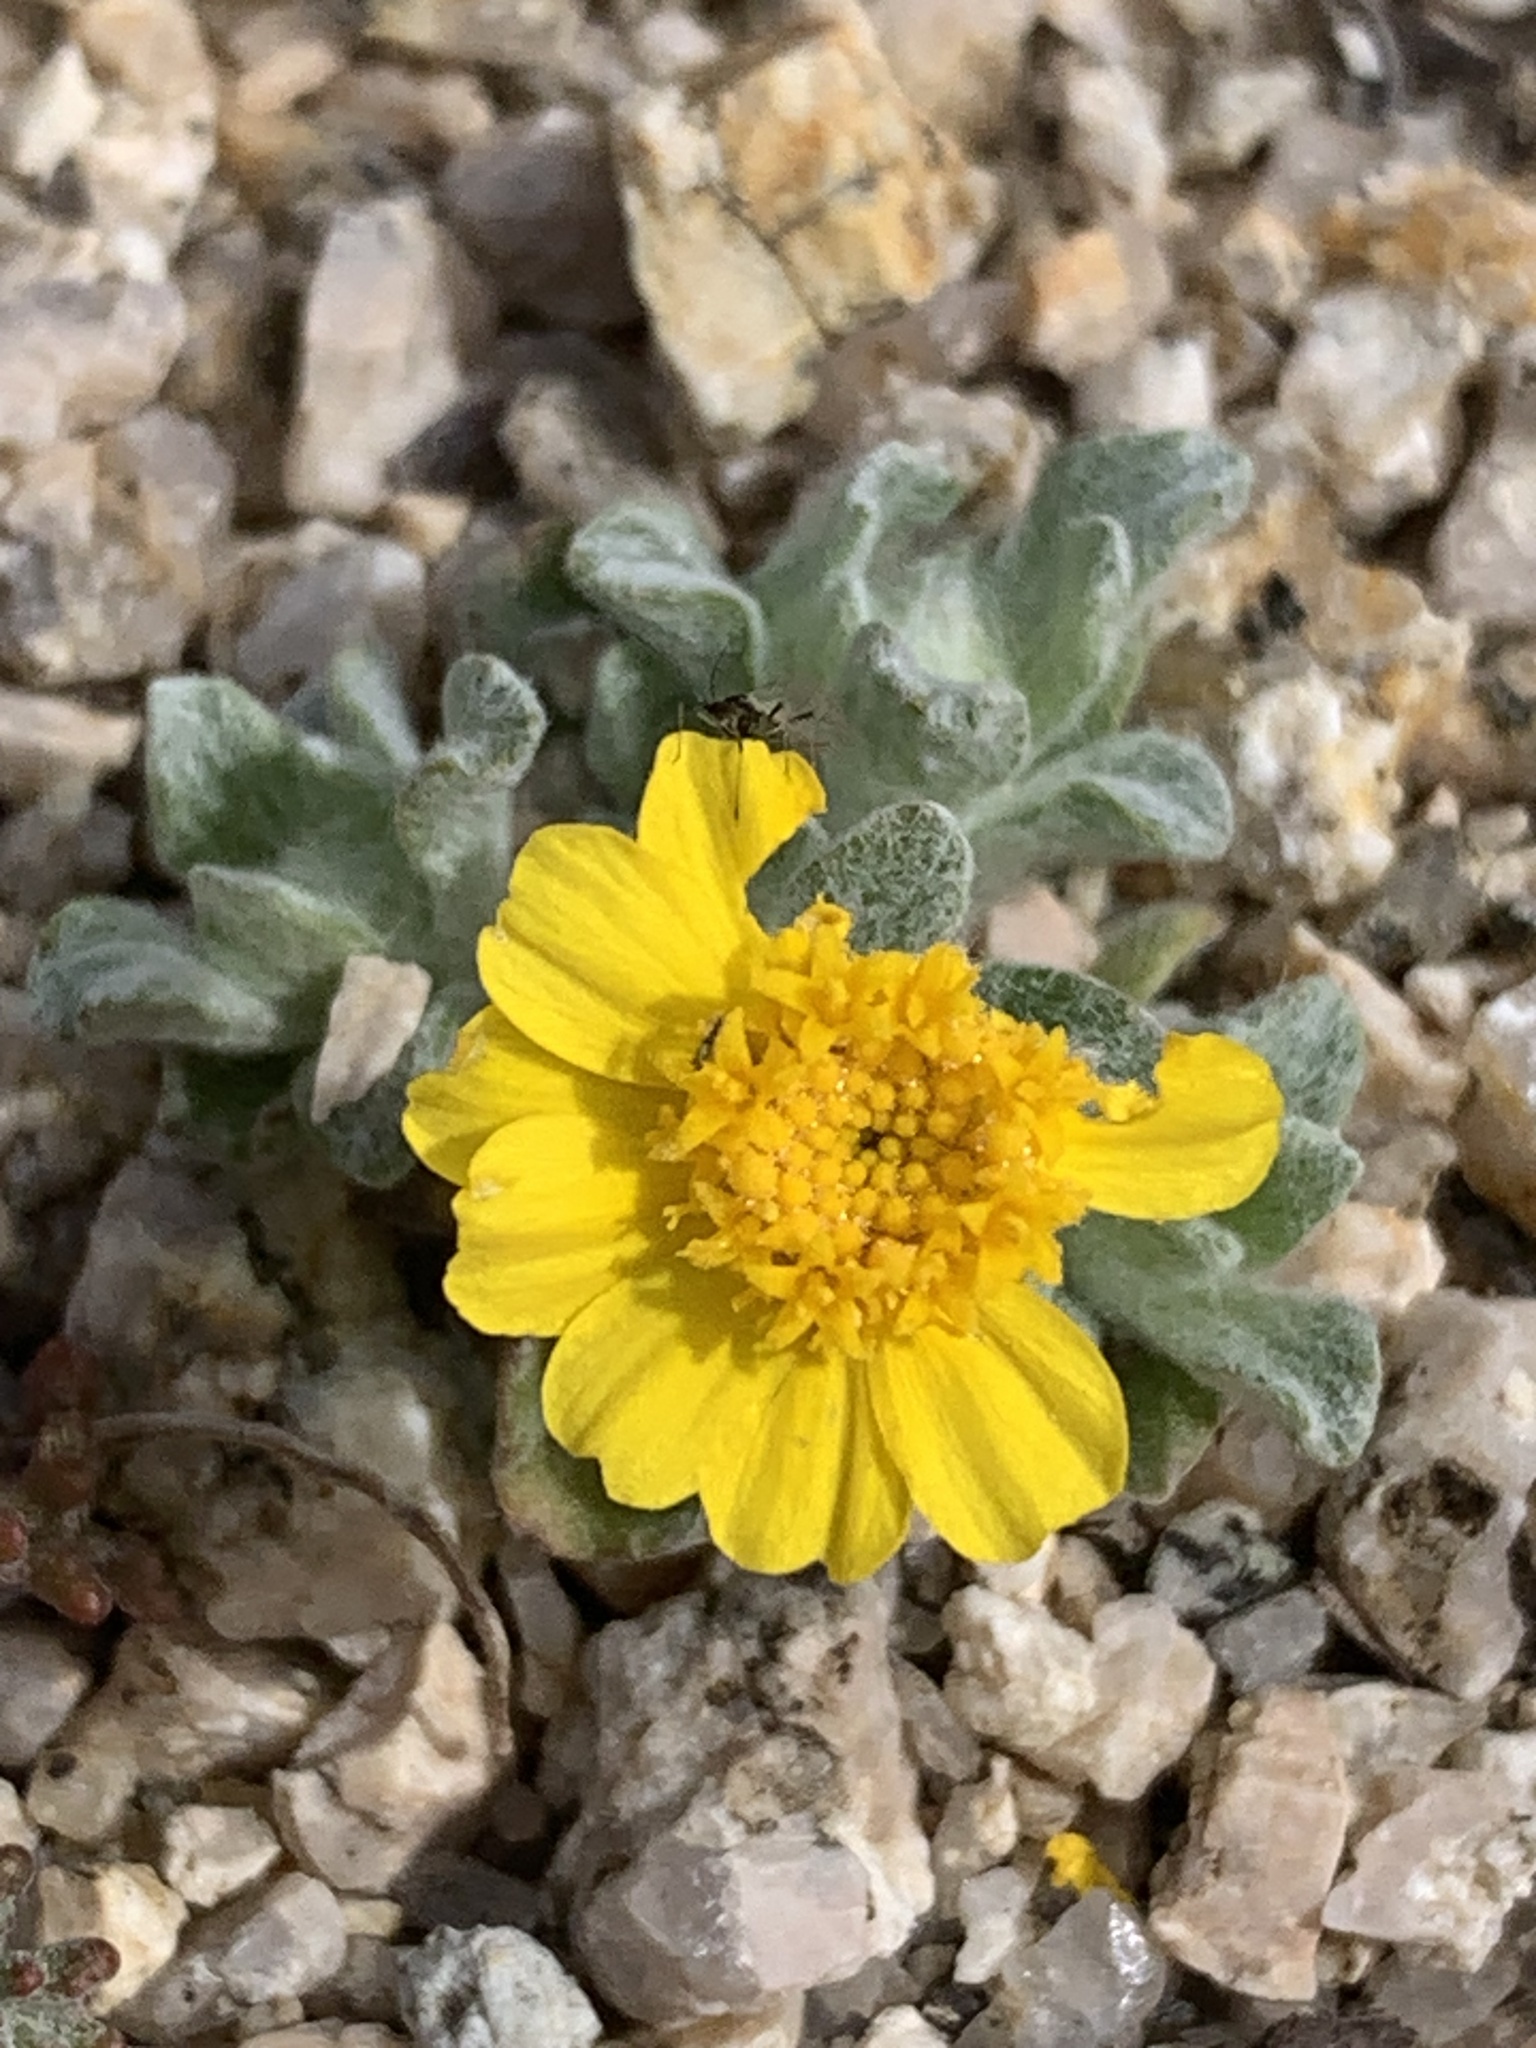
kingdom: Plantae
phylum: Tracheophyta
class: Magnoliopsida
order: Asterales
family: Asteraceae
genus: Eriophyllum
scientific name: Eriophyllum wallacei
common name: Wallace's woolly daisy
